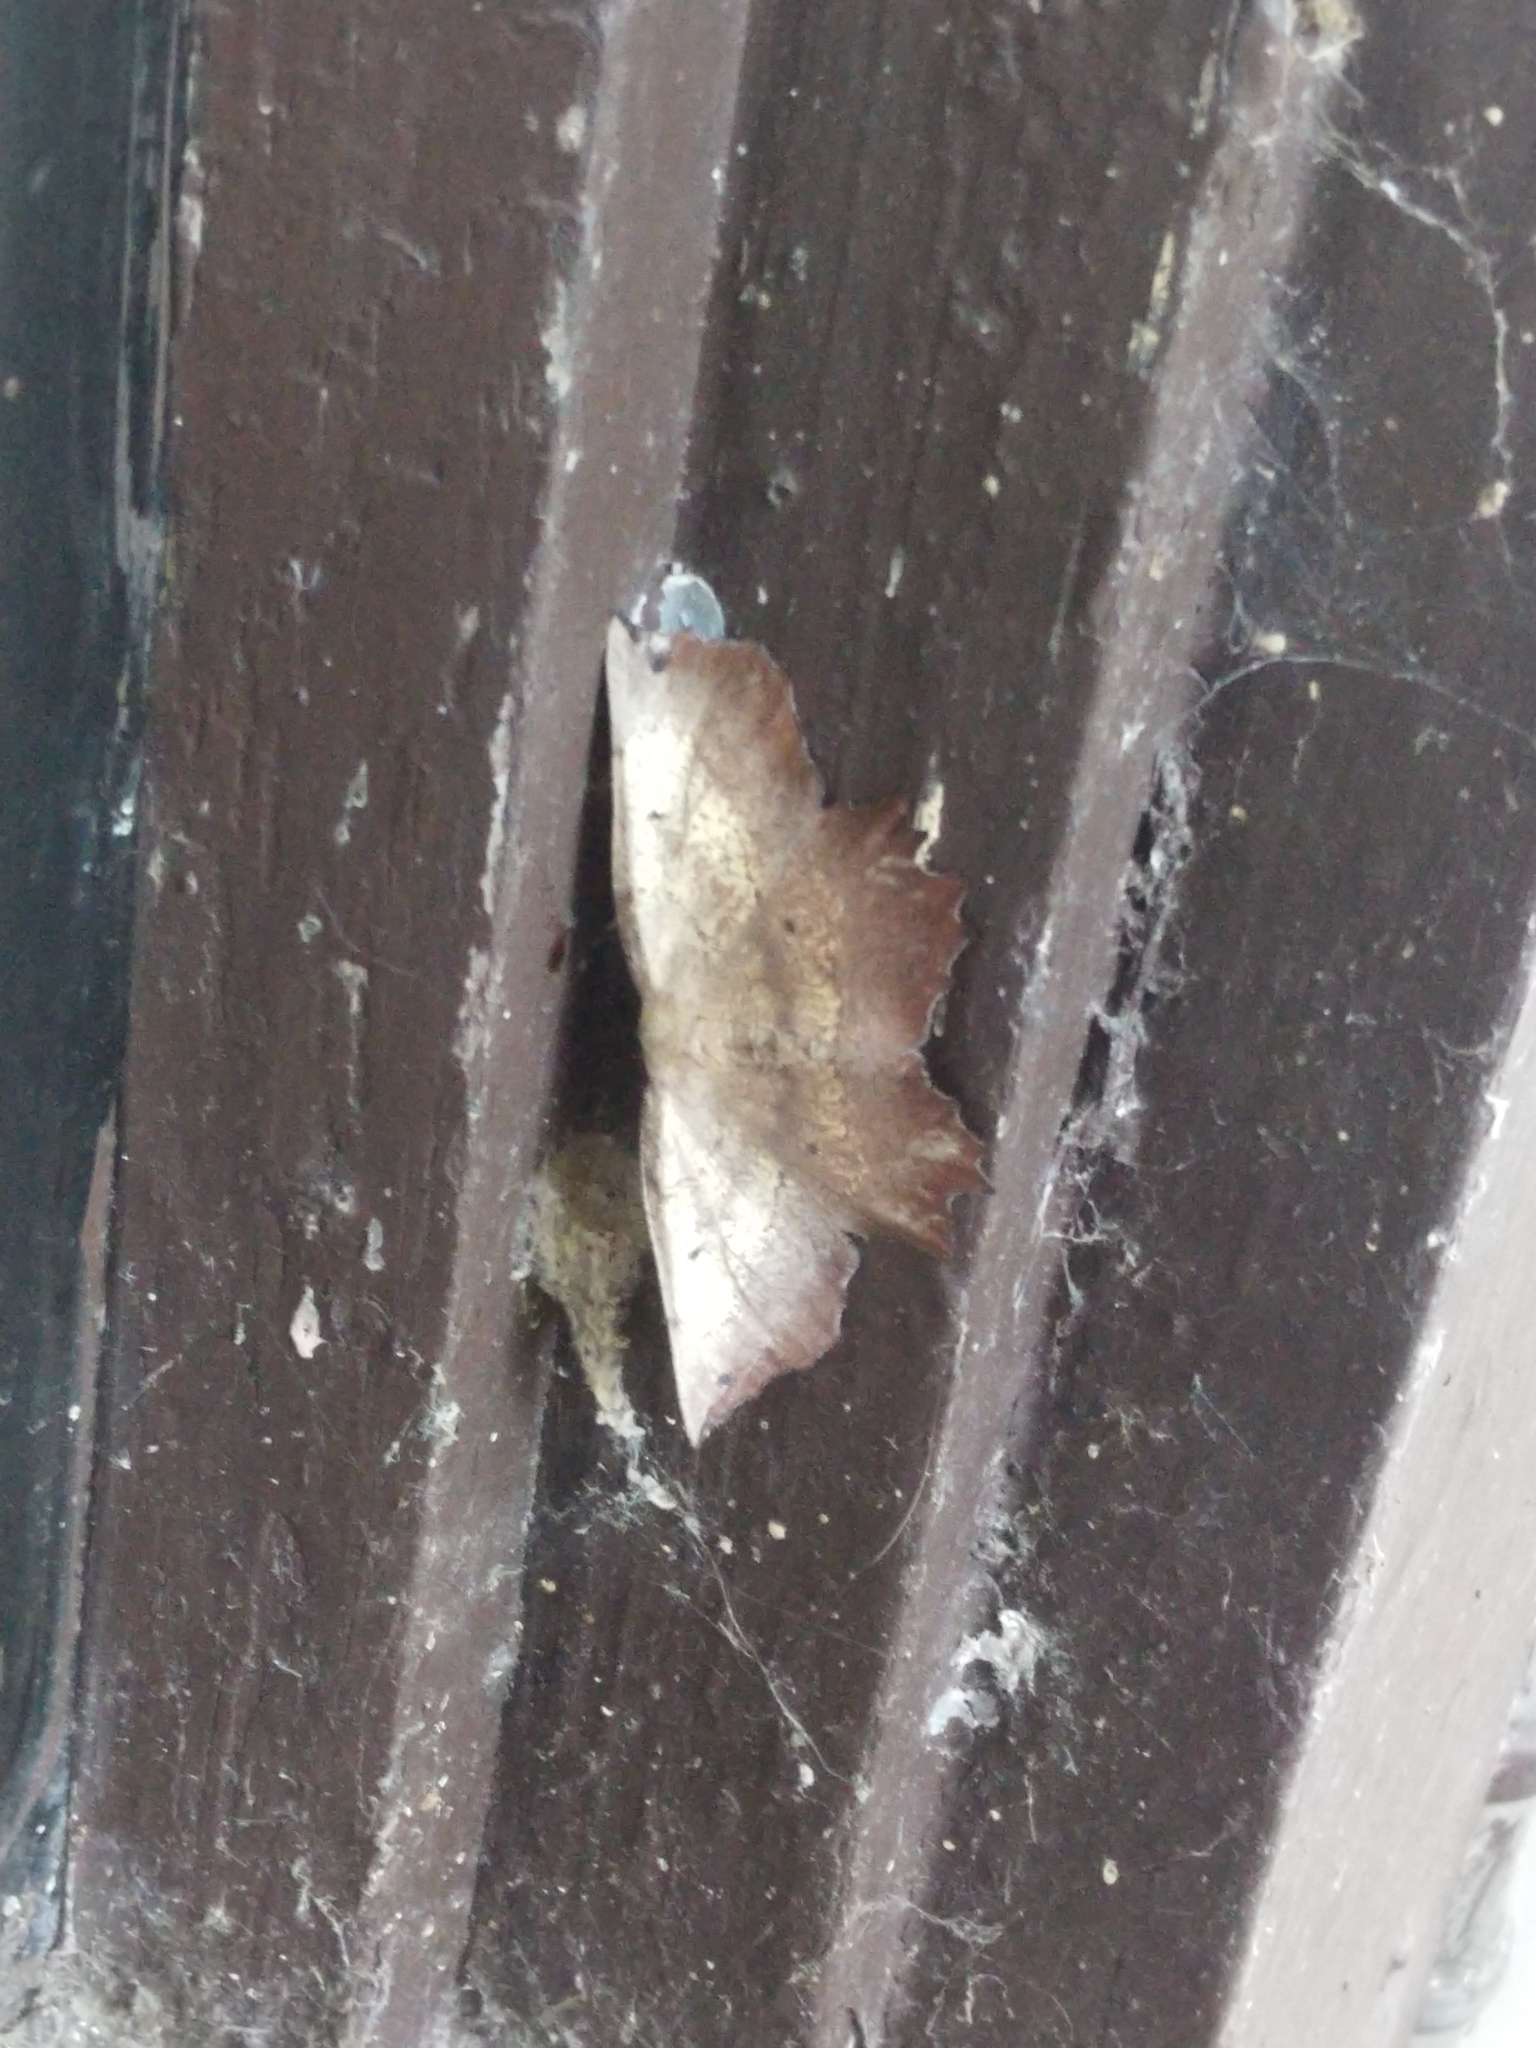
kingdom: Animalia
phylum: Arthropoda
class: Insecta
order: Lepidoptera
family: Geometridae
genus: Euchlaena
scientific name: Euchlaena muzaria
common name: Muzaria euchlaena
